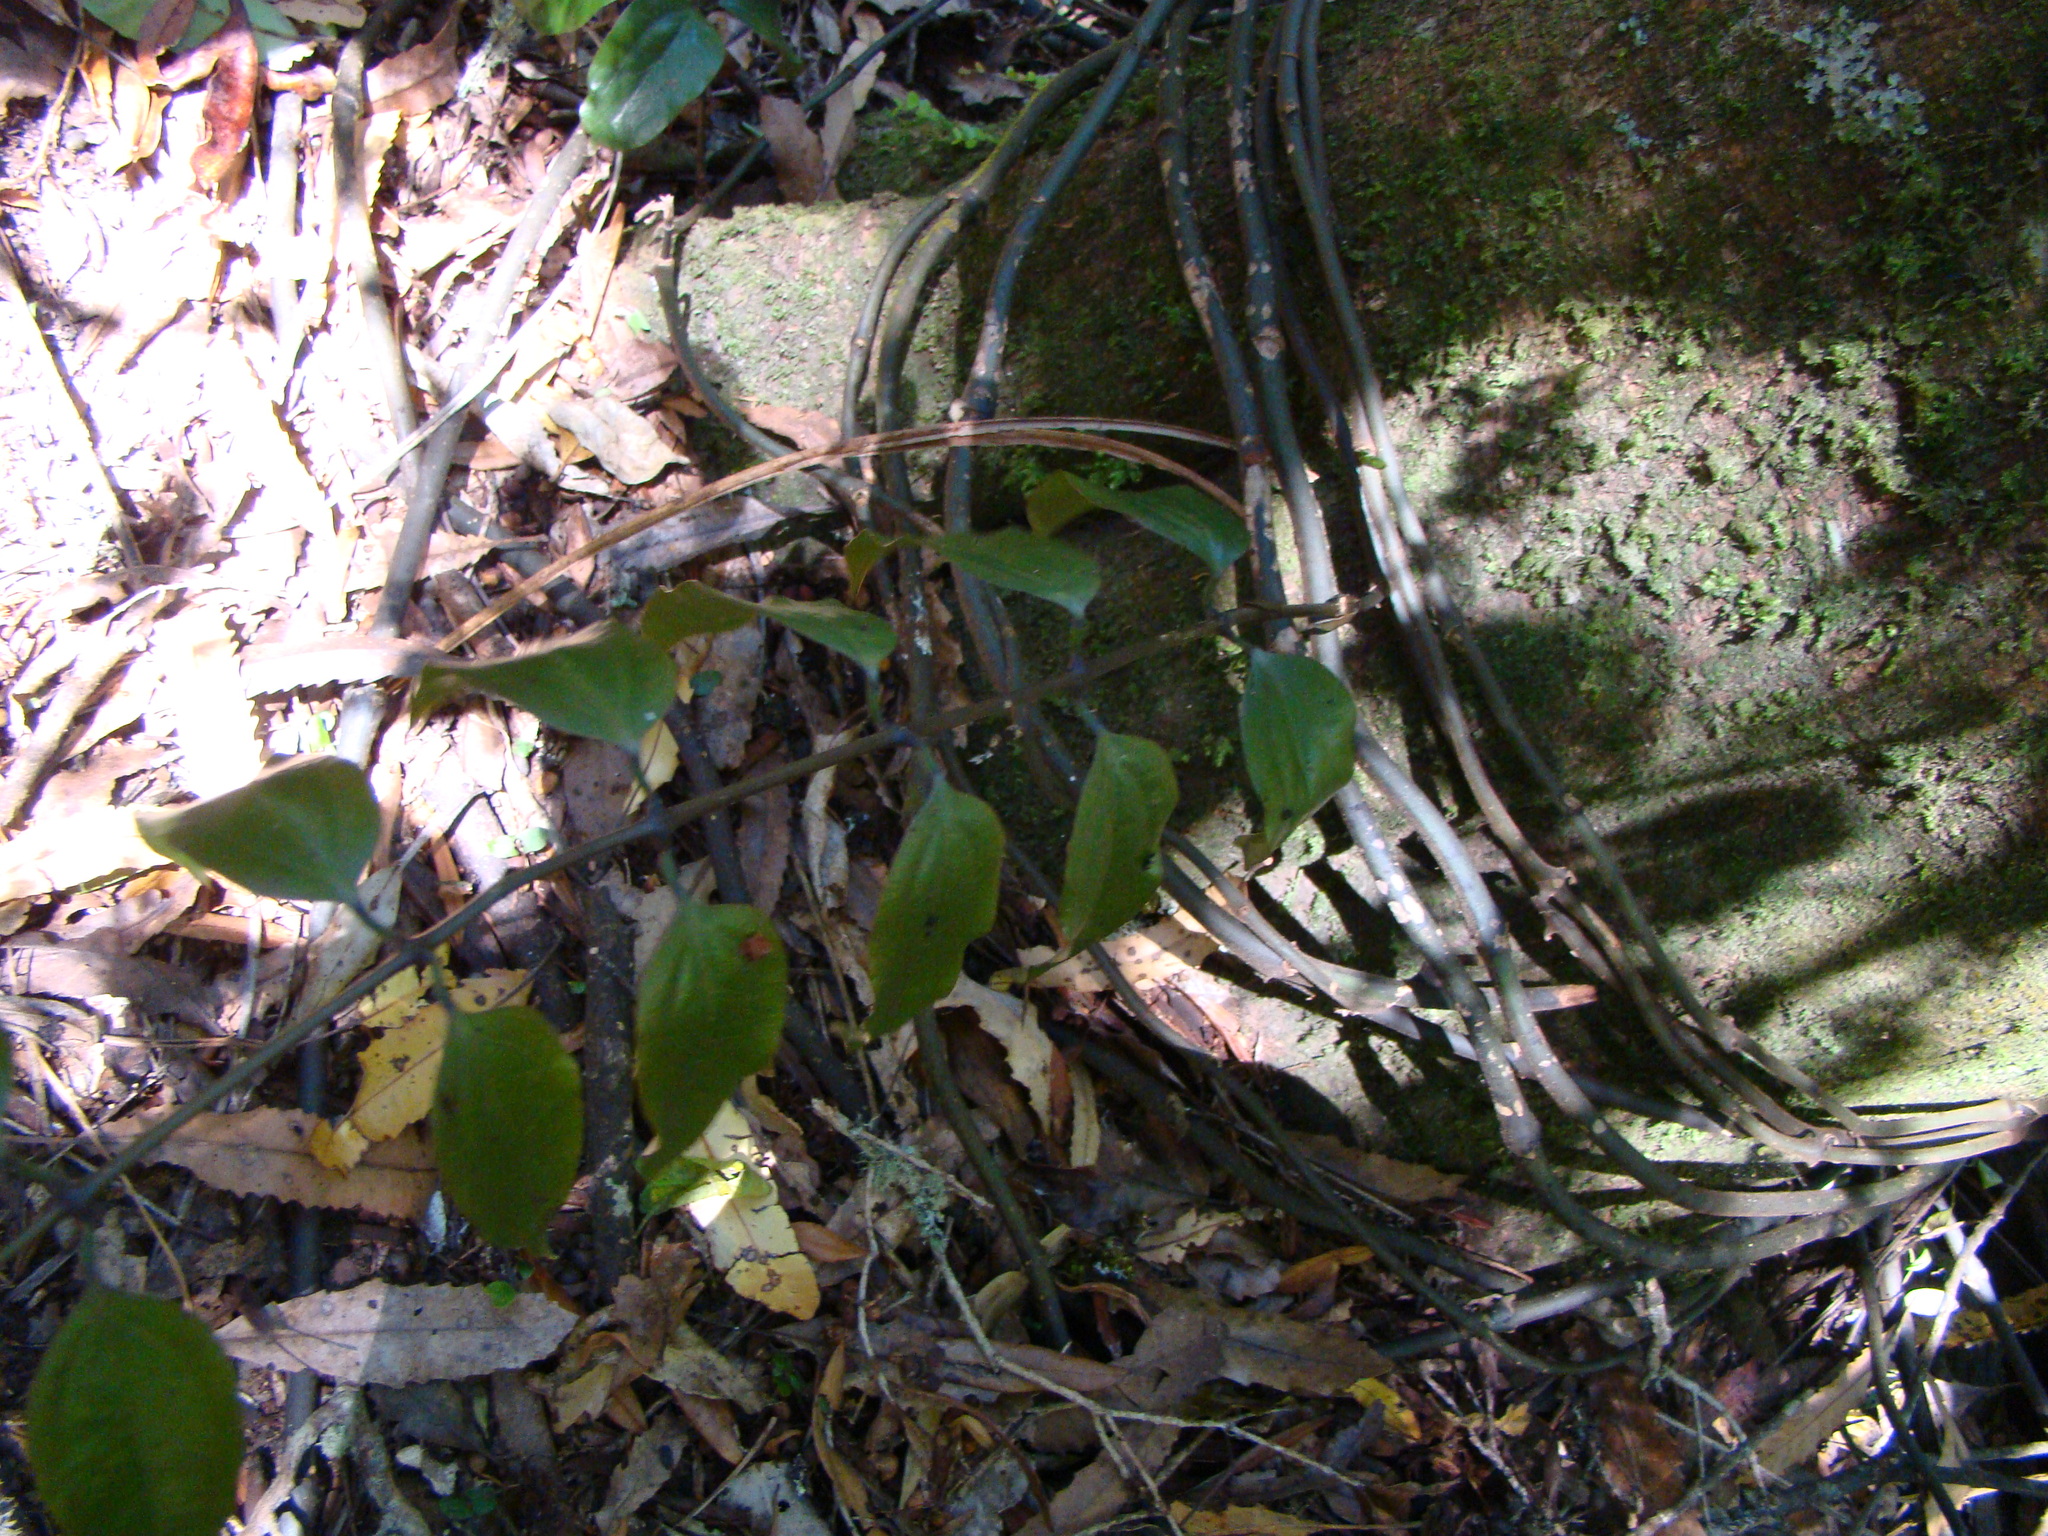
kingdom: Plantae
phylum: Tracheophyta
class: Liliopsida
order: Liliales
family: Ripogonaceae
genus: Ripogonum
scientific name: Ripogonum scandens
